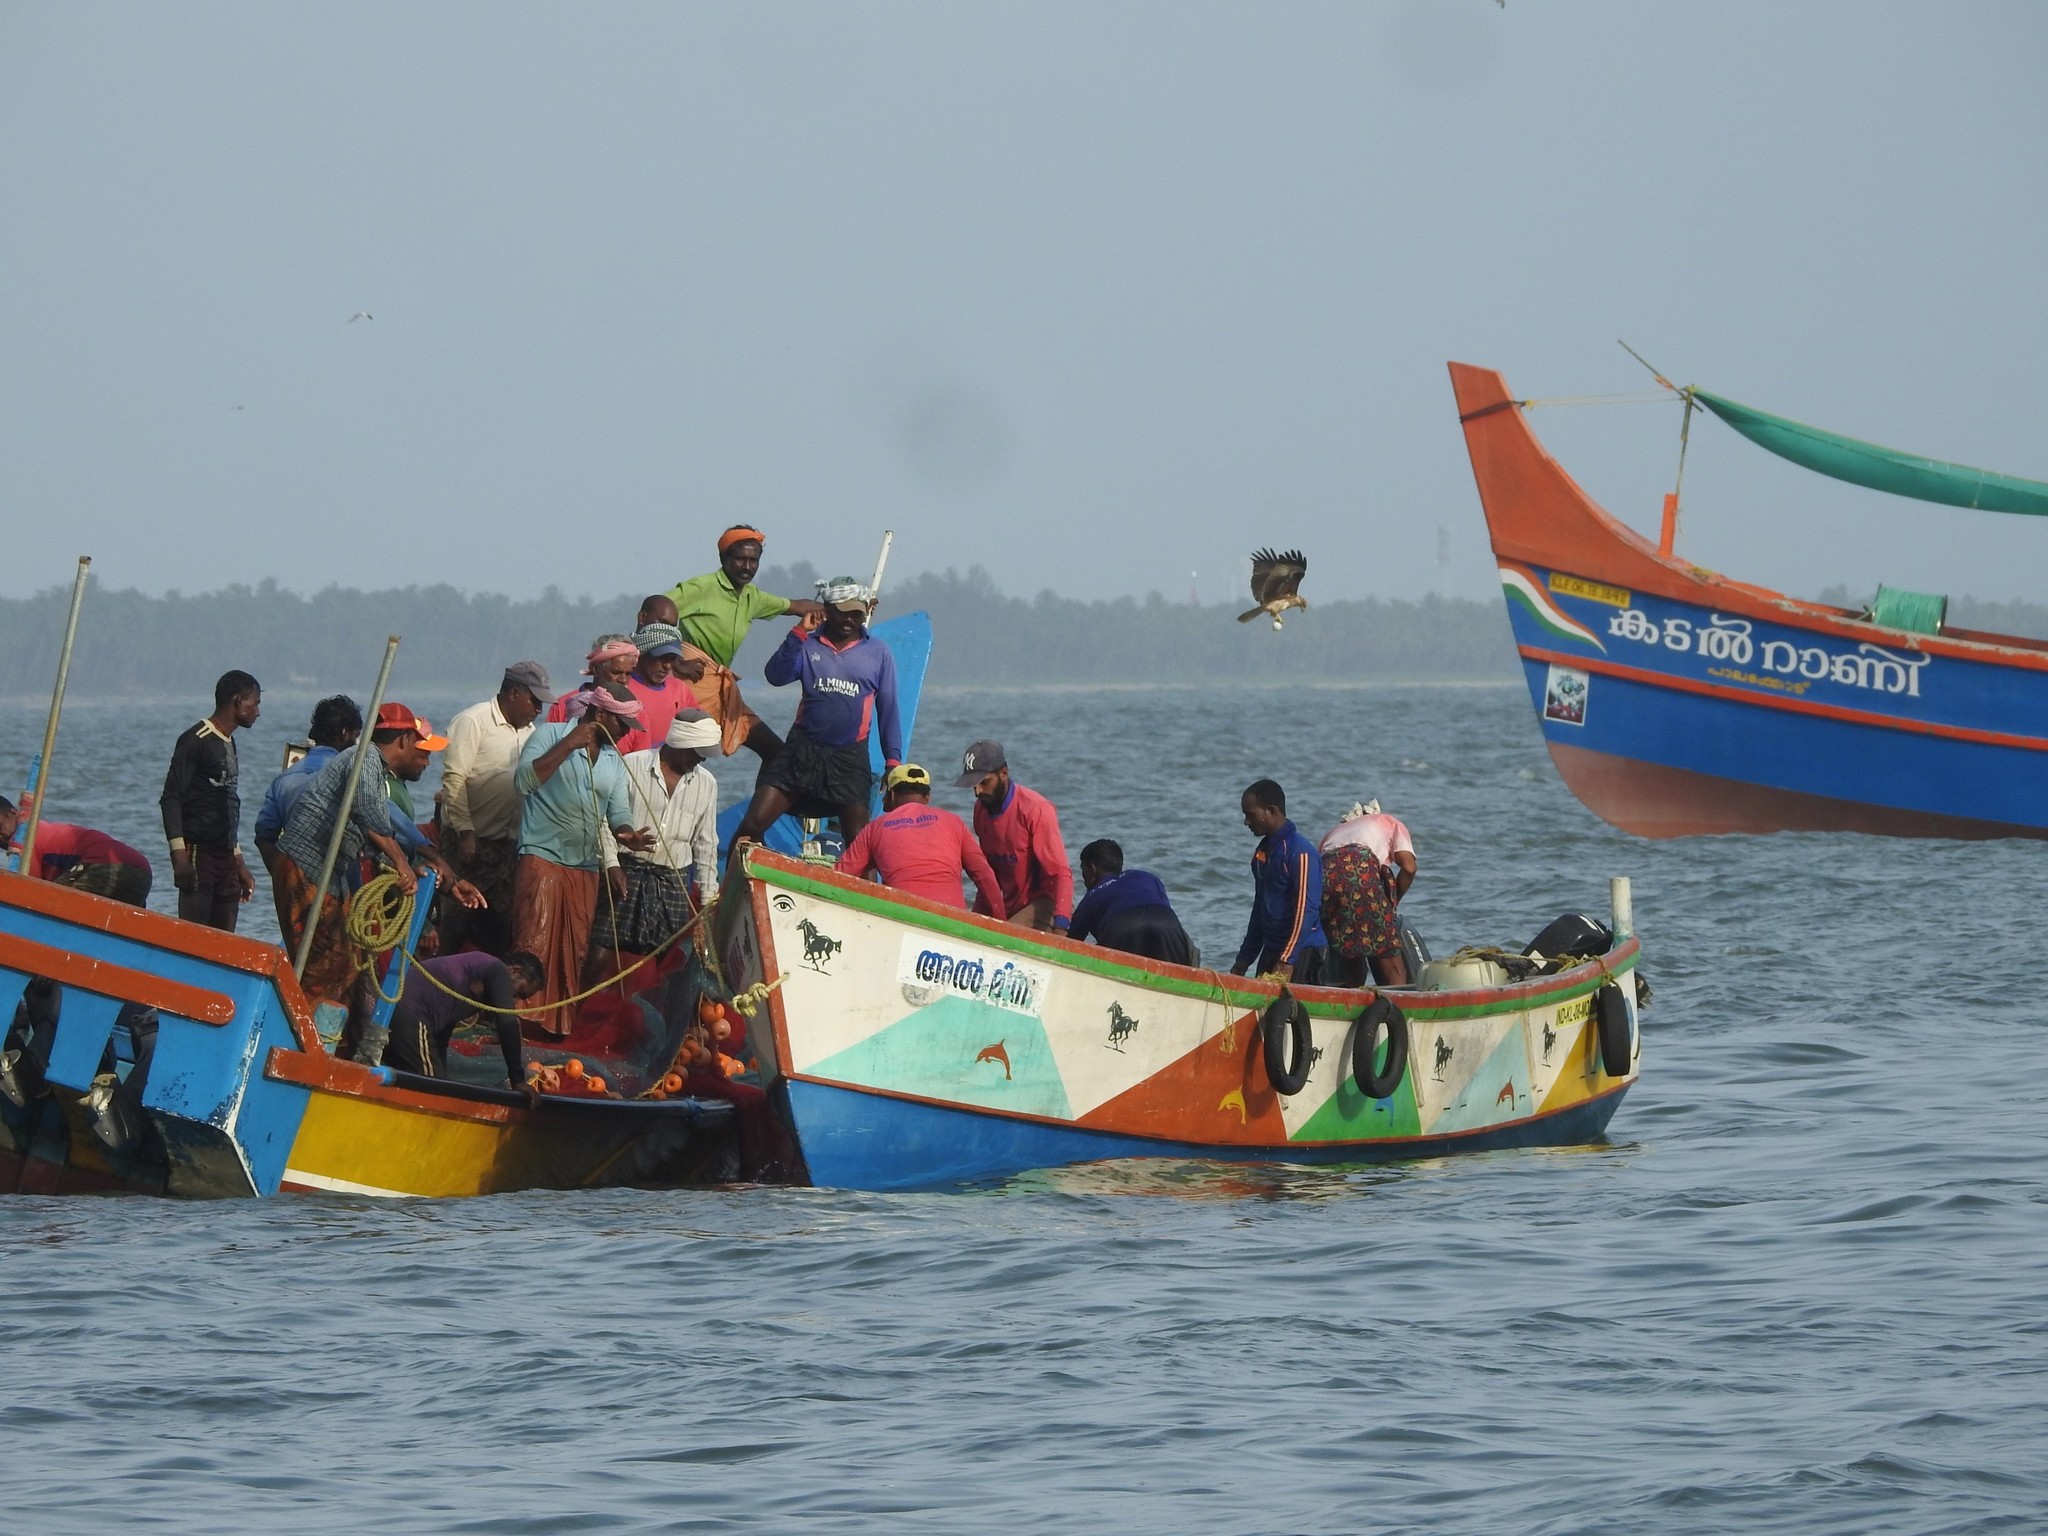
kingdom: Animalia
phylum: Chordata
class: Aves
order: Accipitriformes
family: Accipitridae
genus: Haliastur
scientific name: Haliastur indus
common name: Brahminy kite
